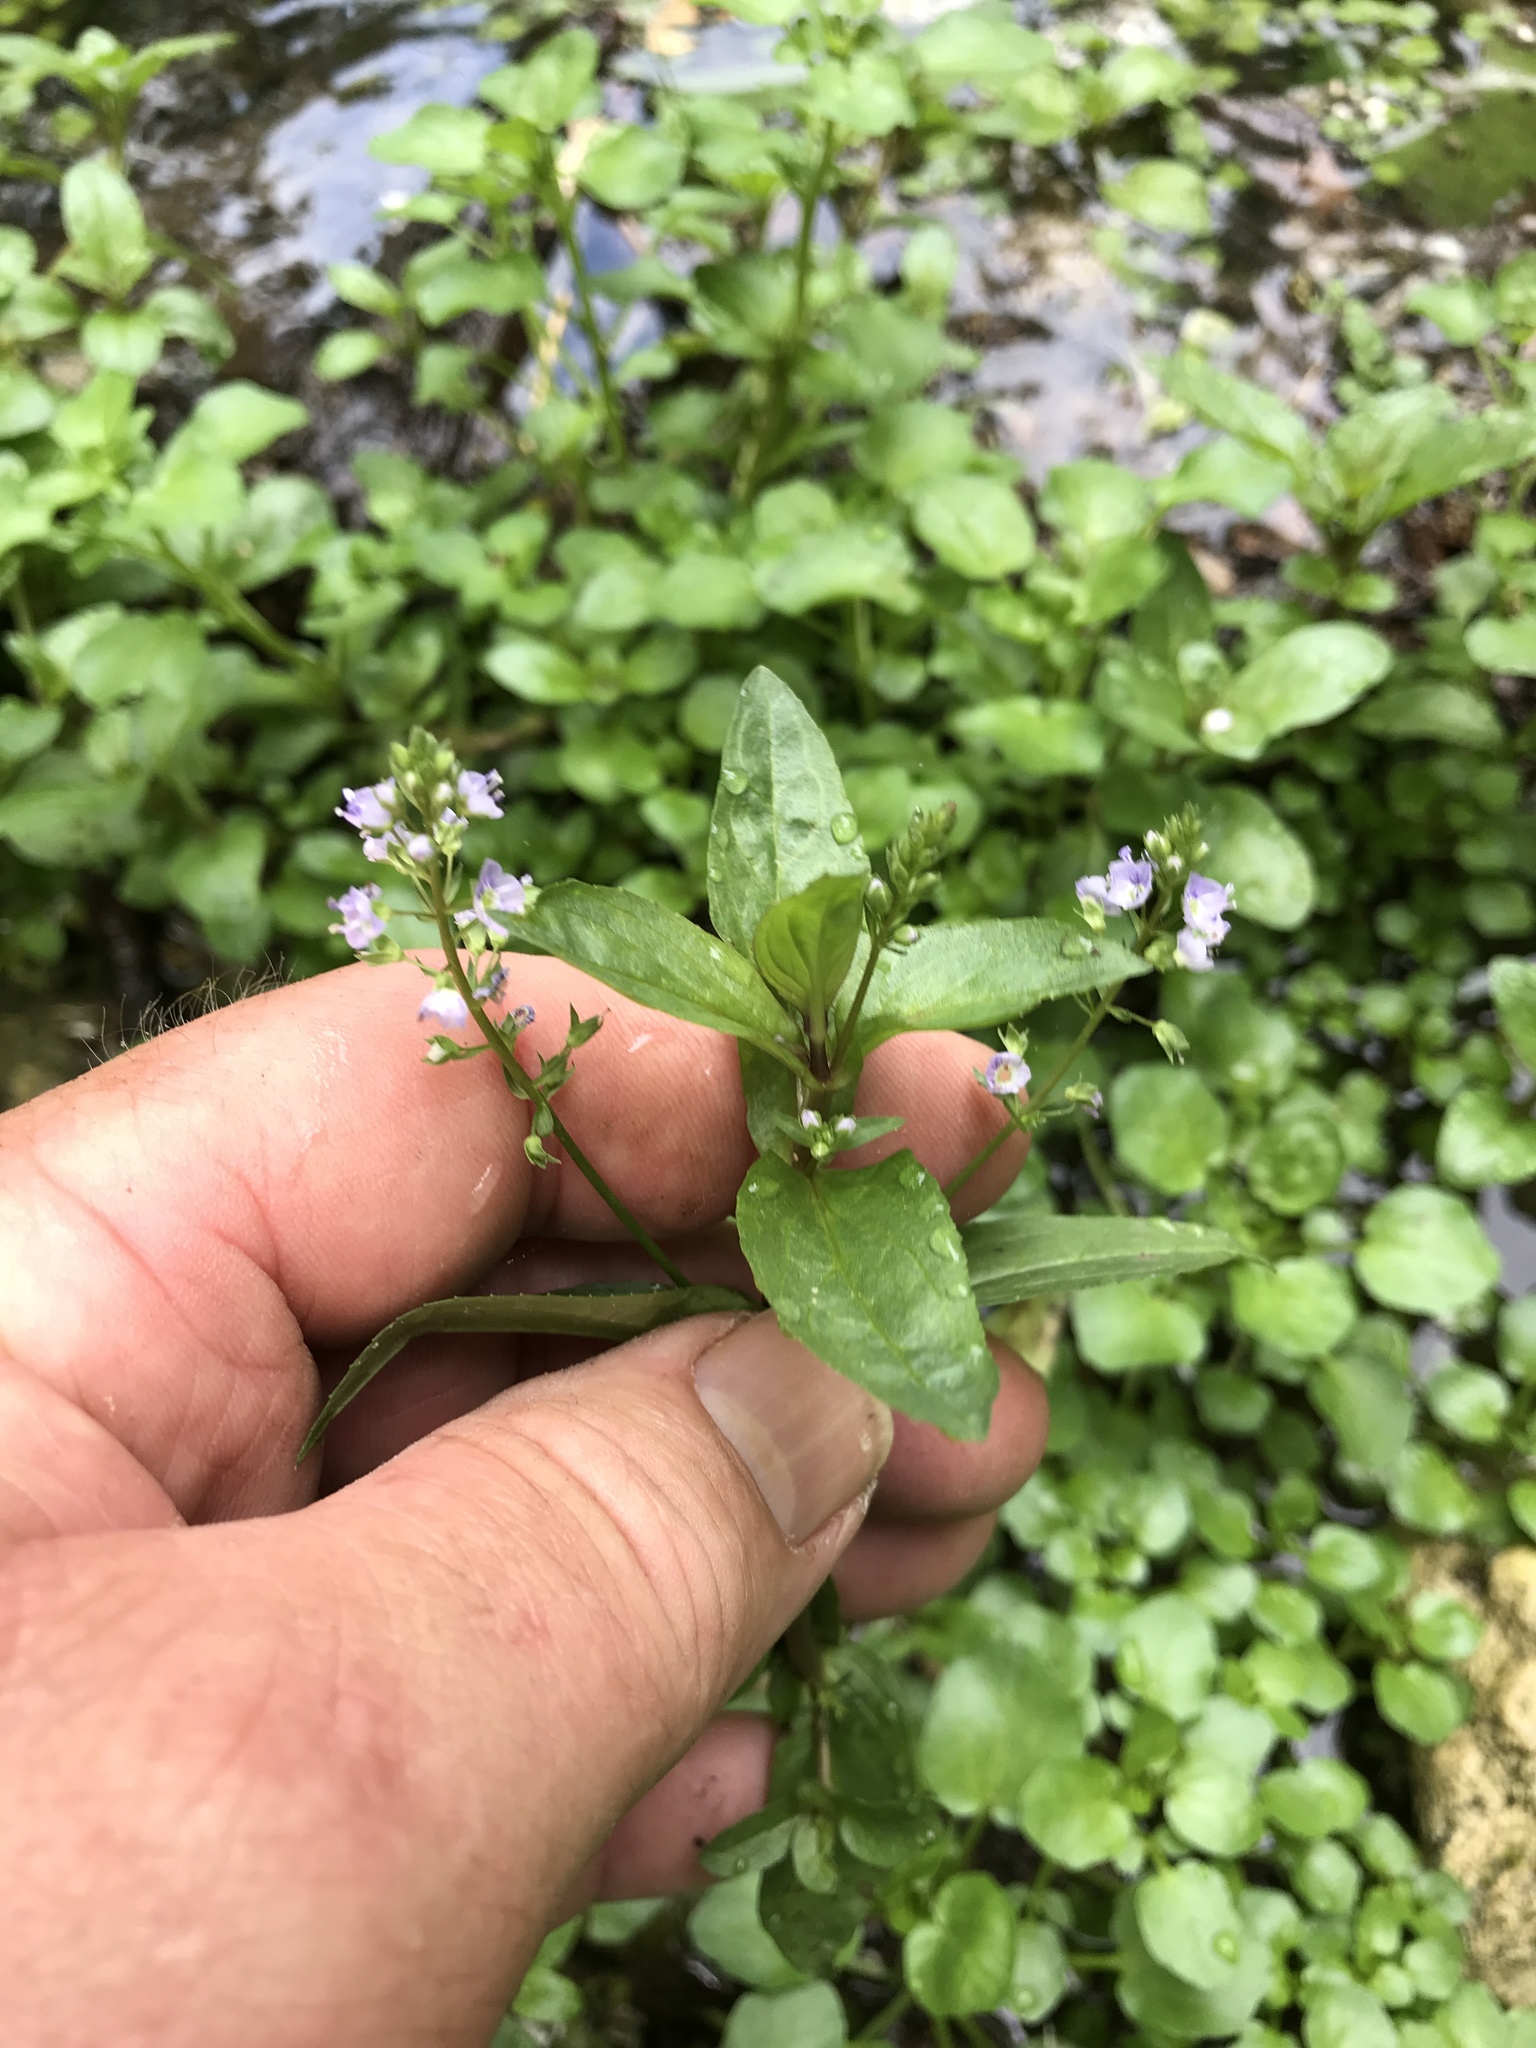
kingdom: Plantae
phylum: Tracheophyta
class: Magnoliopsida
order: Lamiales
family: Plantaginaceae
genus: Veronica
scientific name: Veronica anagallis-aquatica
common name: Water speedwell
